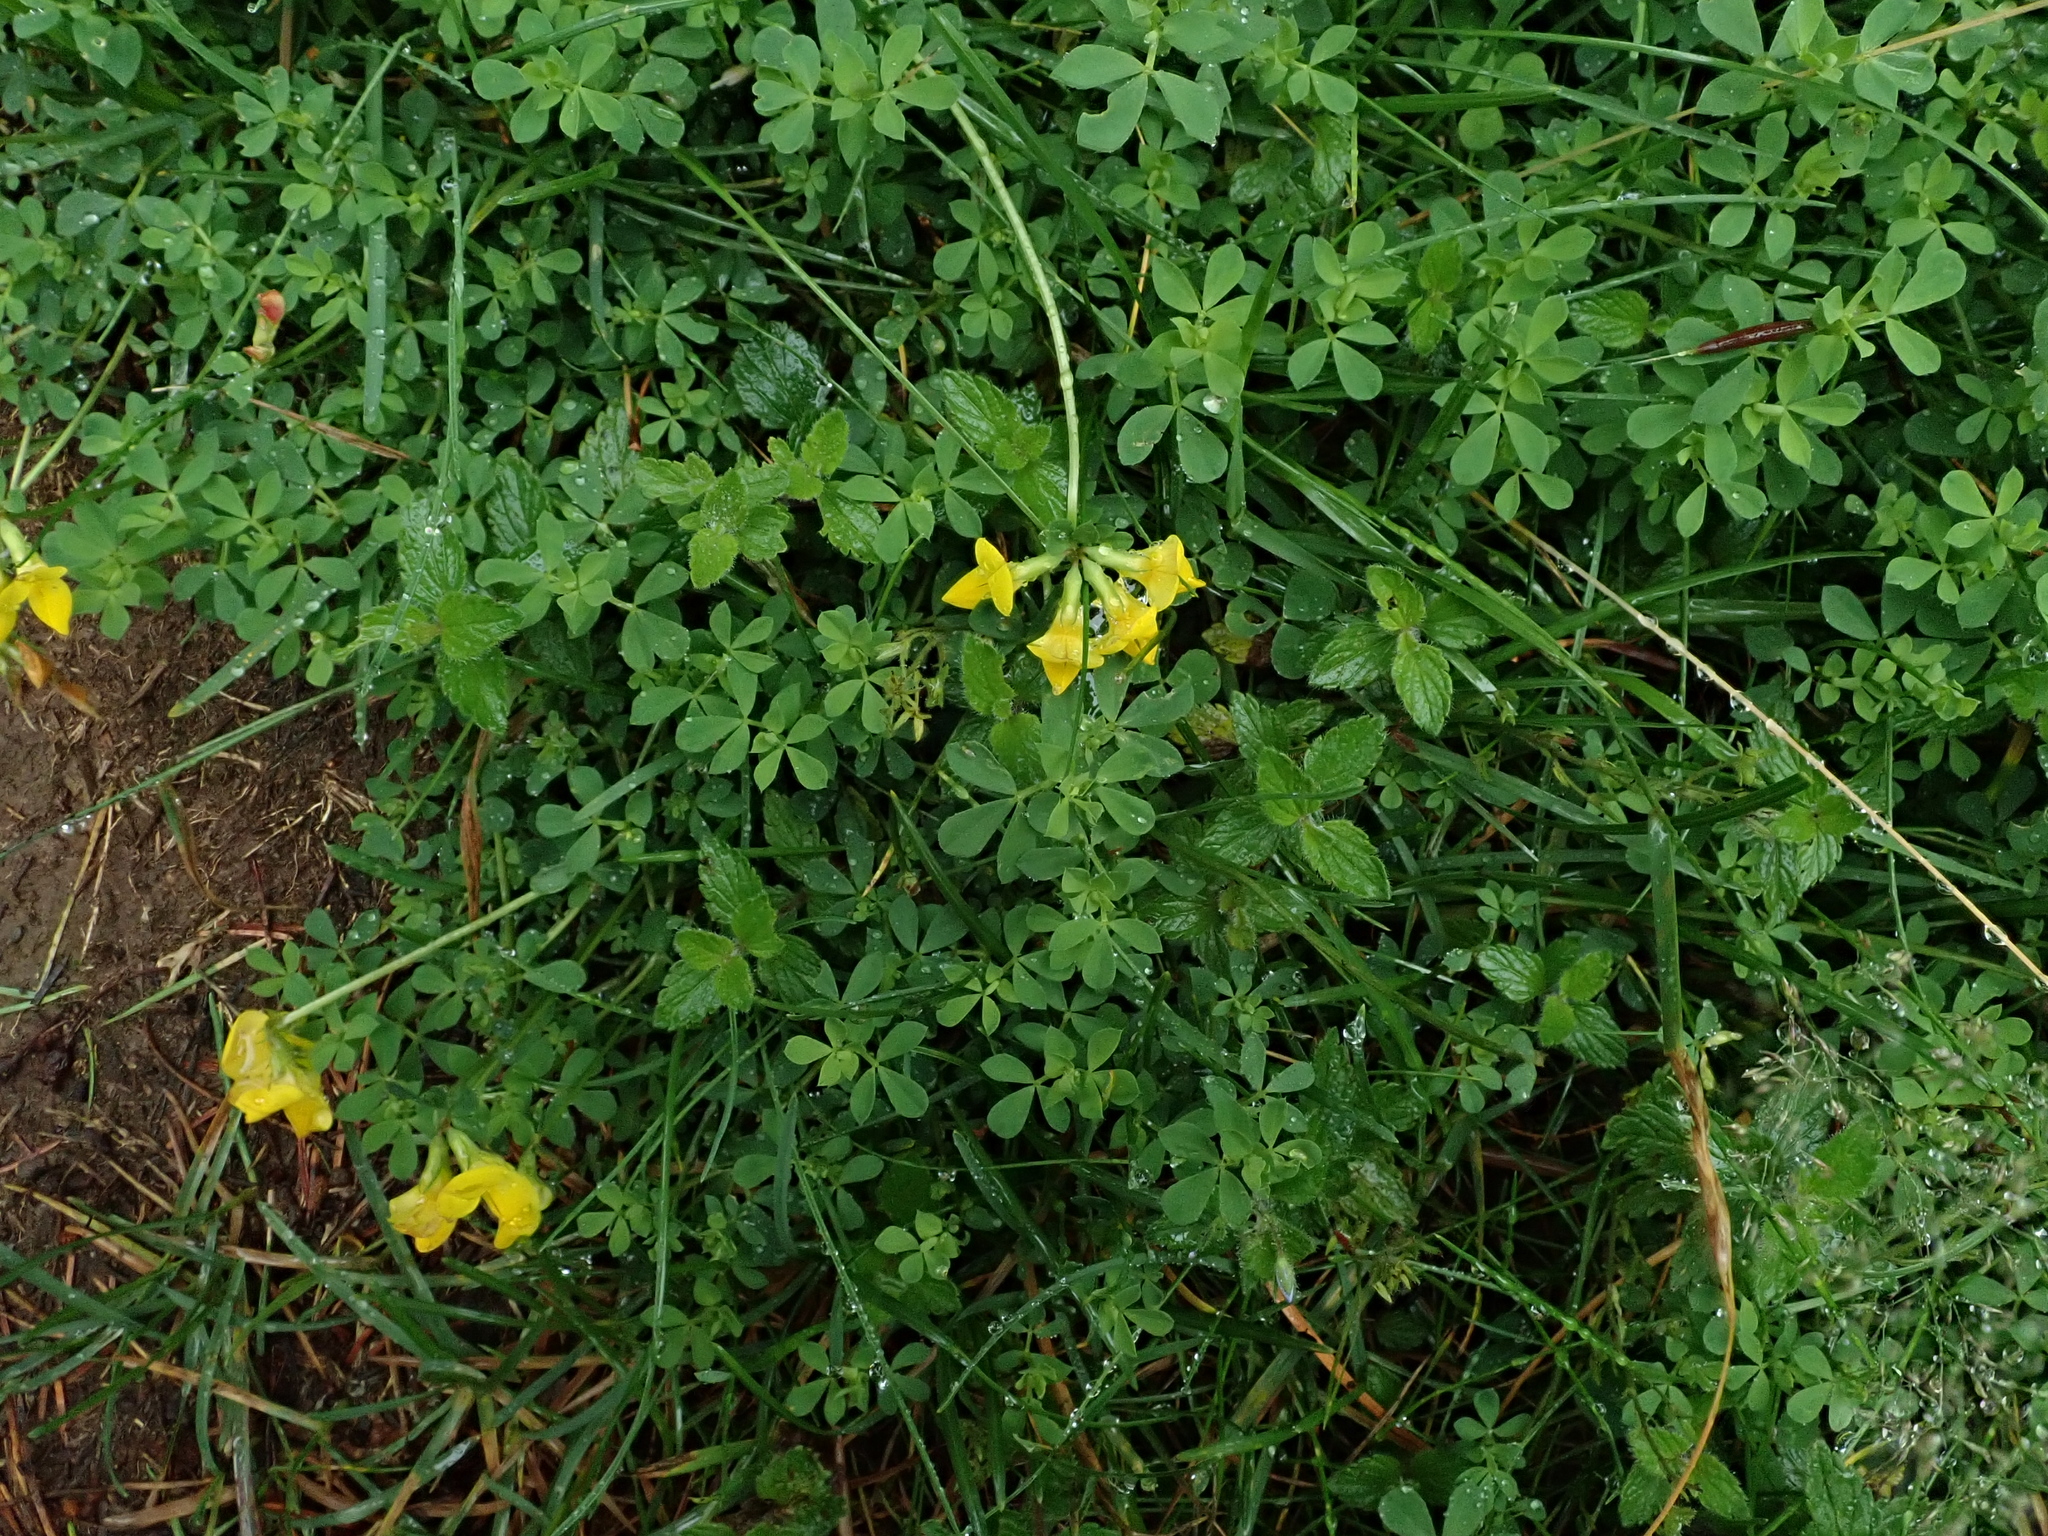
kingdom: Plantae
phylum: Tracheophyta
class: Magnoliopsida
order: Fabales
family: Fabaceae
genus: Lotus
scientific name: Lotus corniculatus
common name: Common bird's-foot-trefoil
